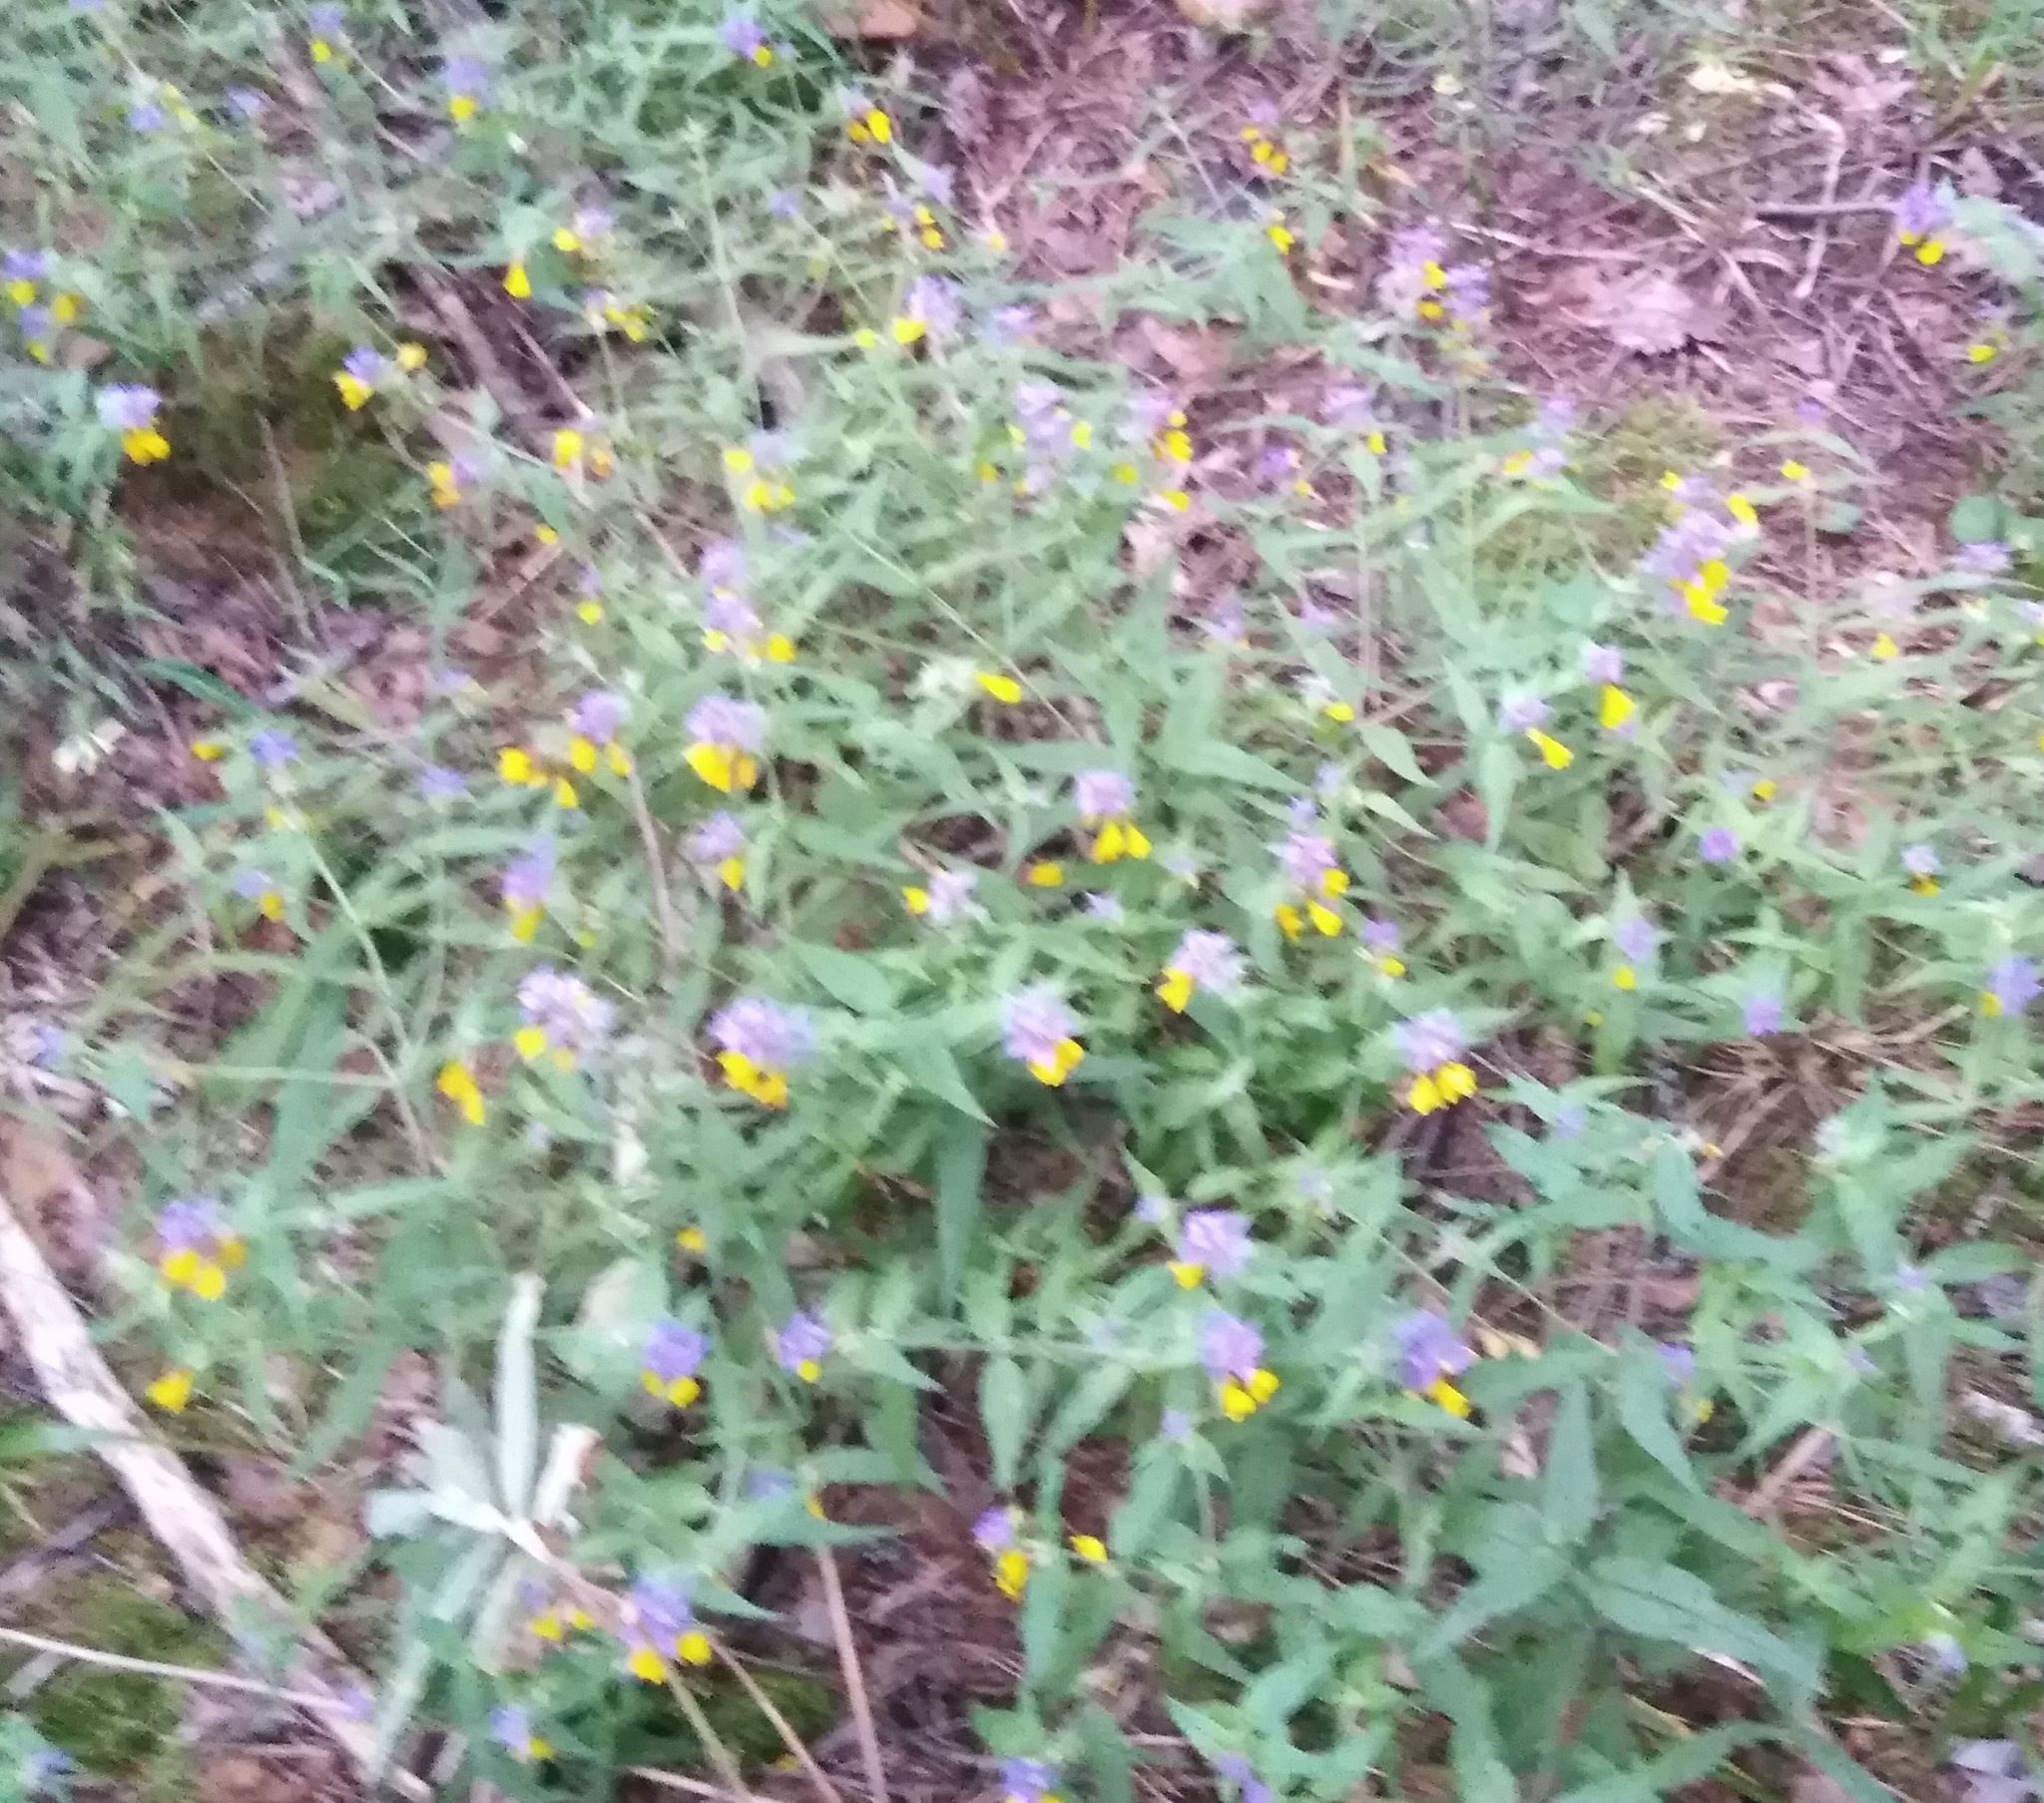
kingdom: Plantae
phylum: Tracheophyta
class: Magnoliopsida
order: Lamiales
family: Orobanchaceae
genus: Melampyrum
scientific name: Melampyrum nemorosum
